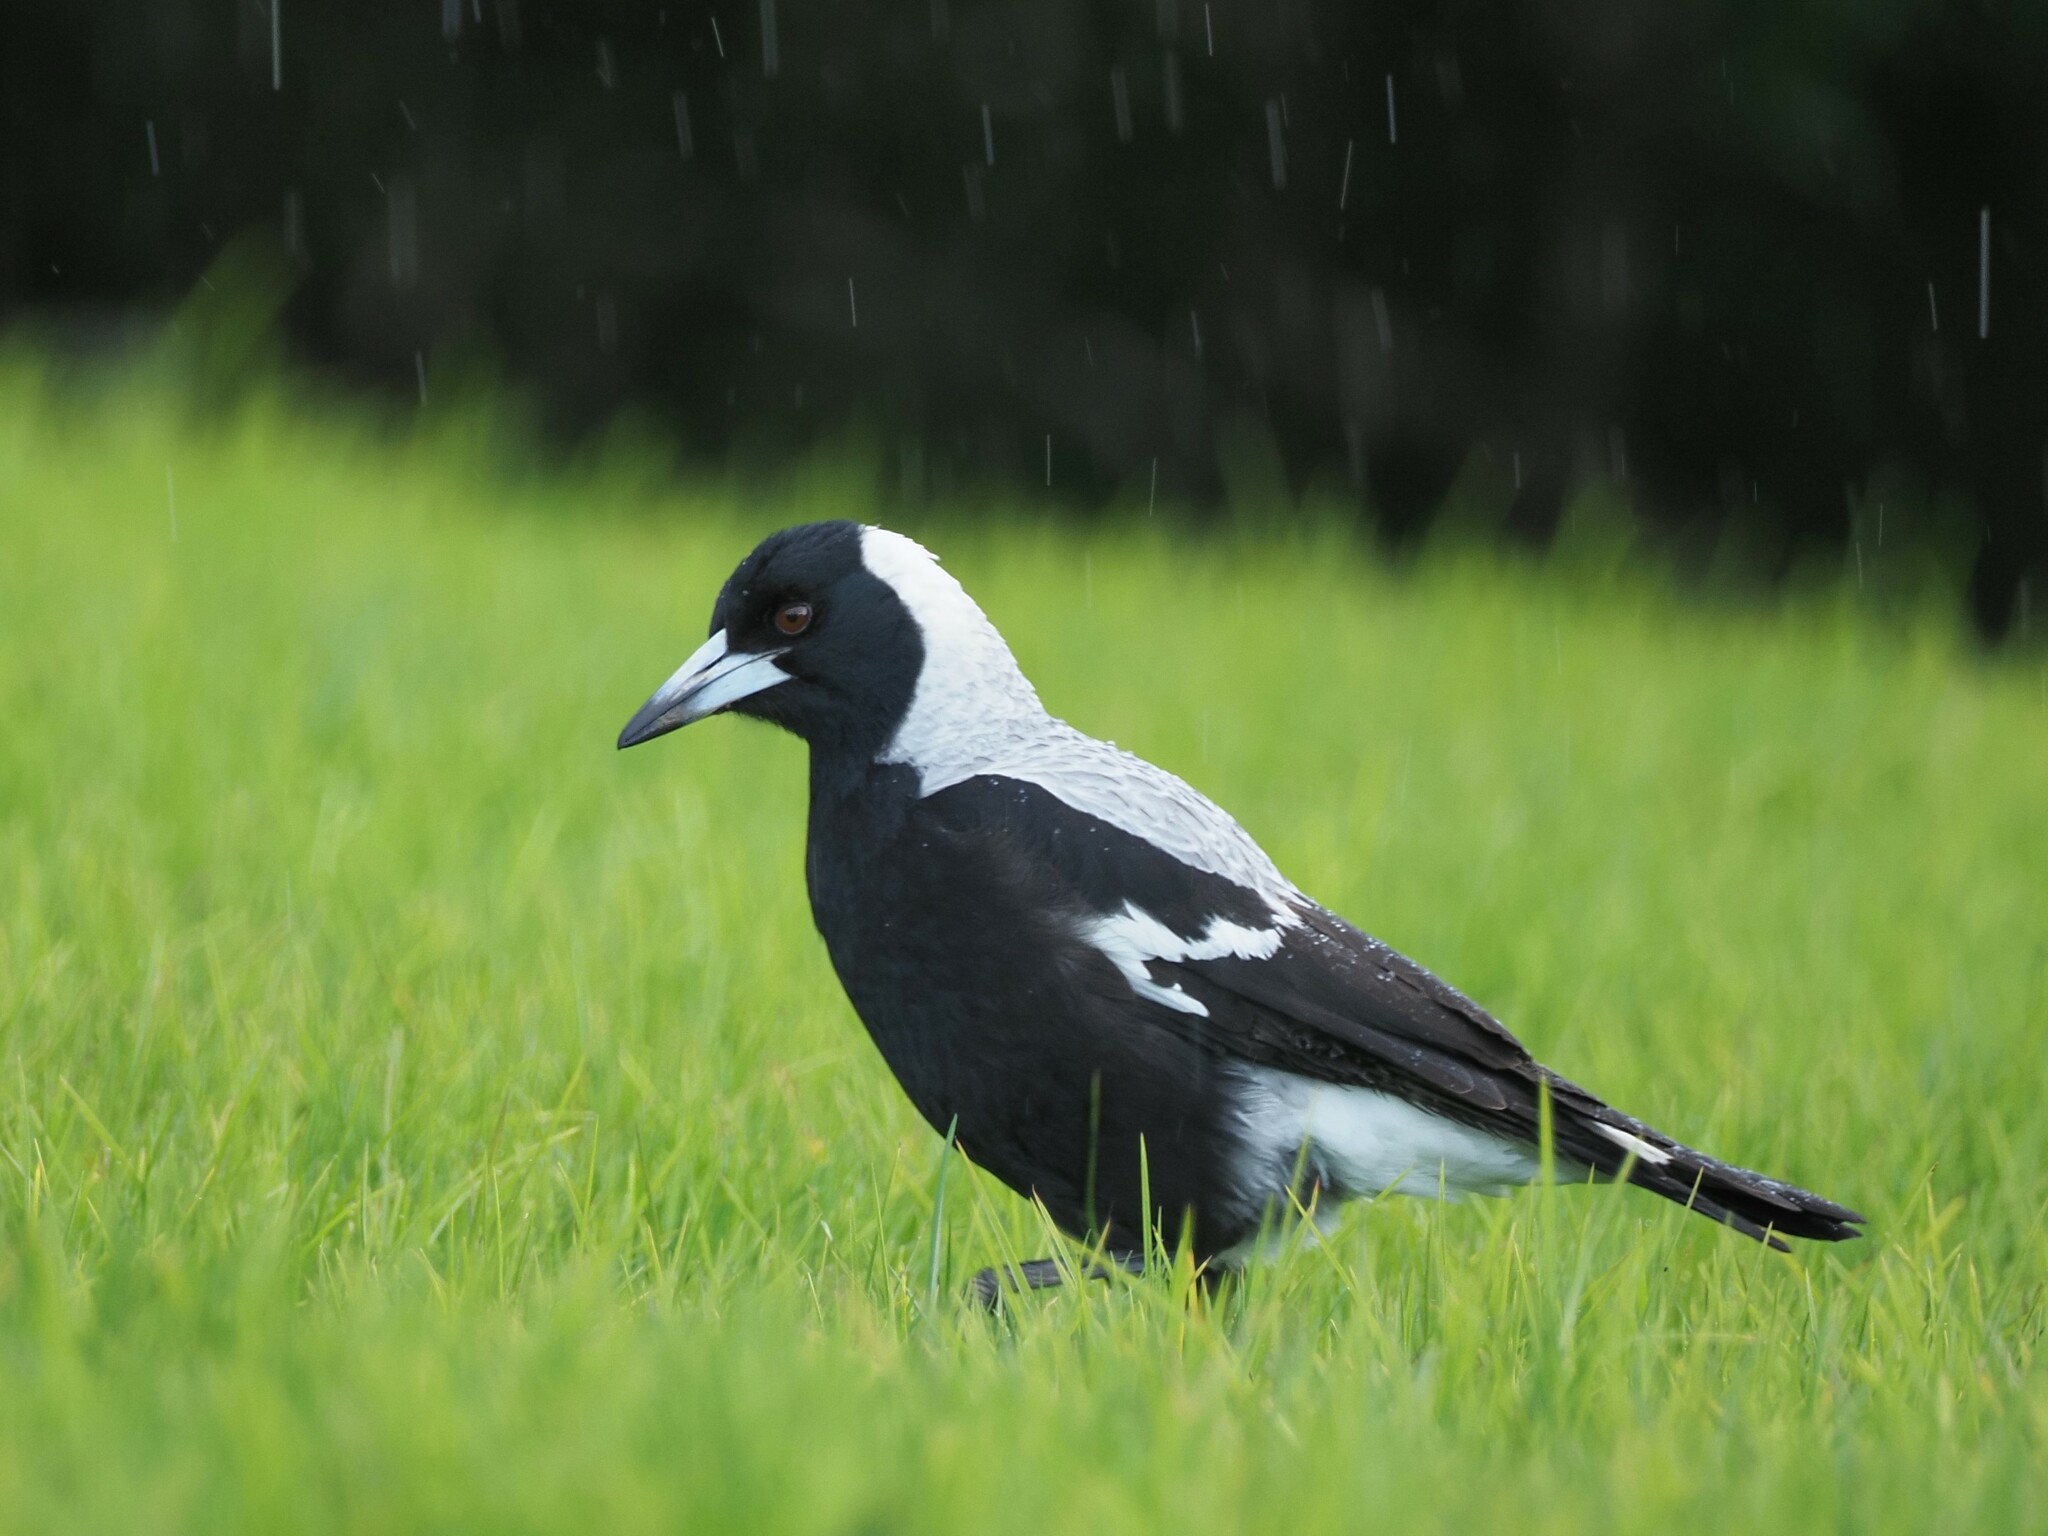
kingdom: Animalia
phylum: Chordata
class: Aves
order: Passeriformes
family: Cracticidae
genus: Gymnorhina
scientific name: Gymnorhina tibicen
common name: Australian magpie
